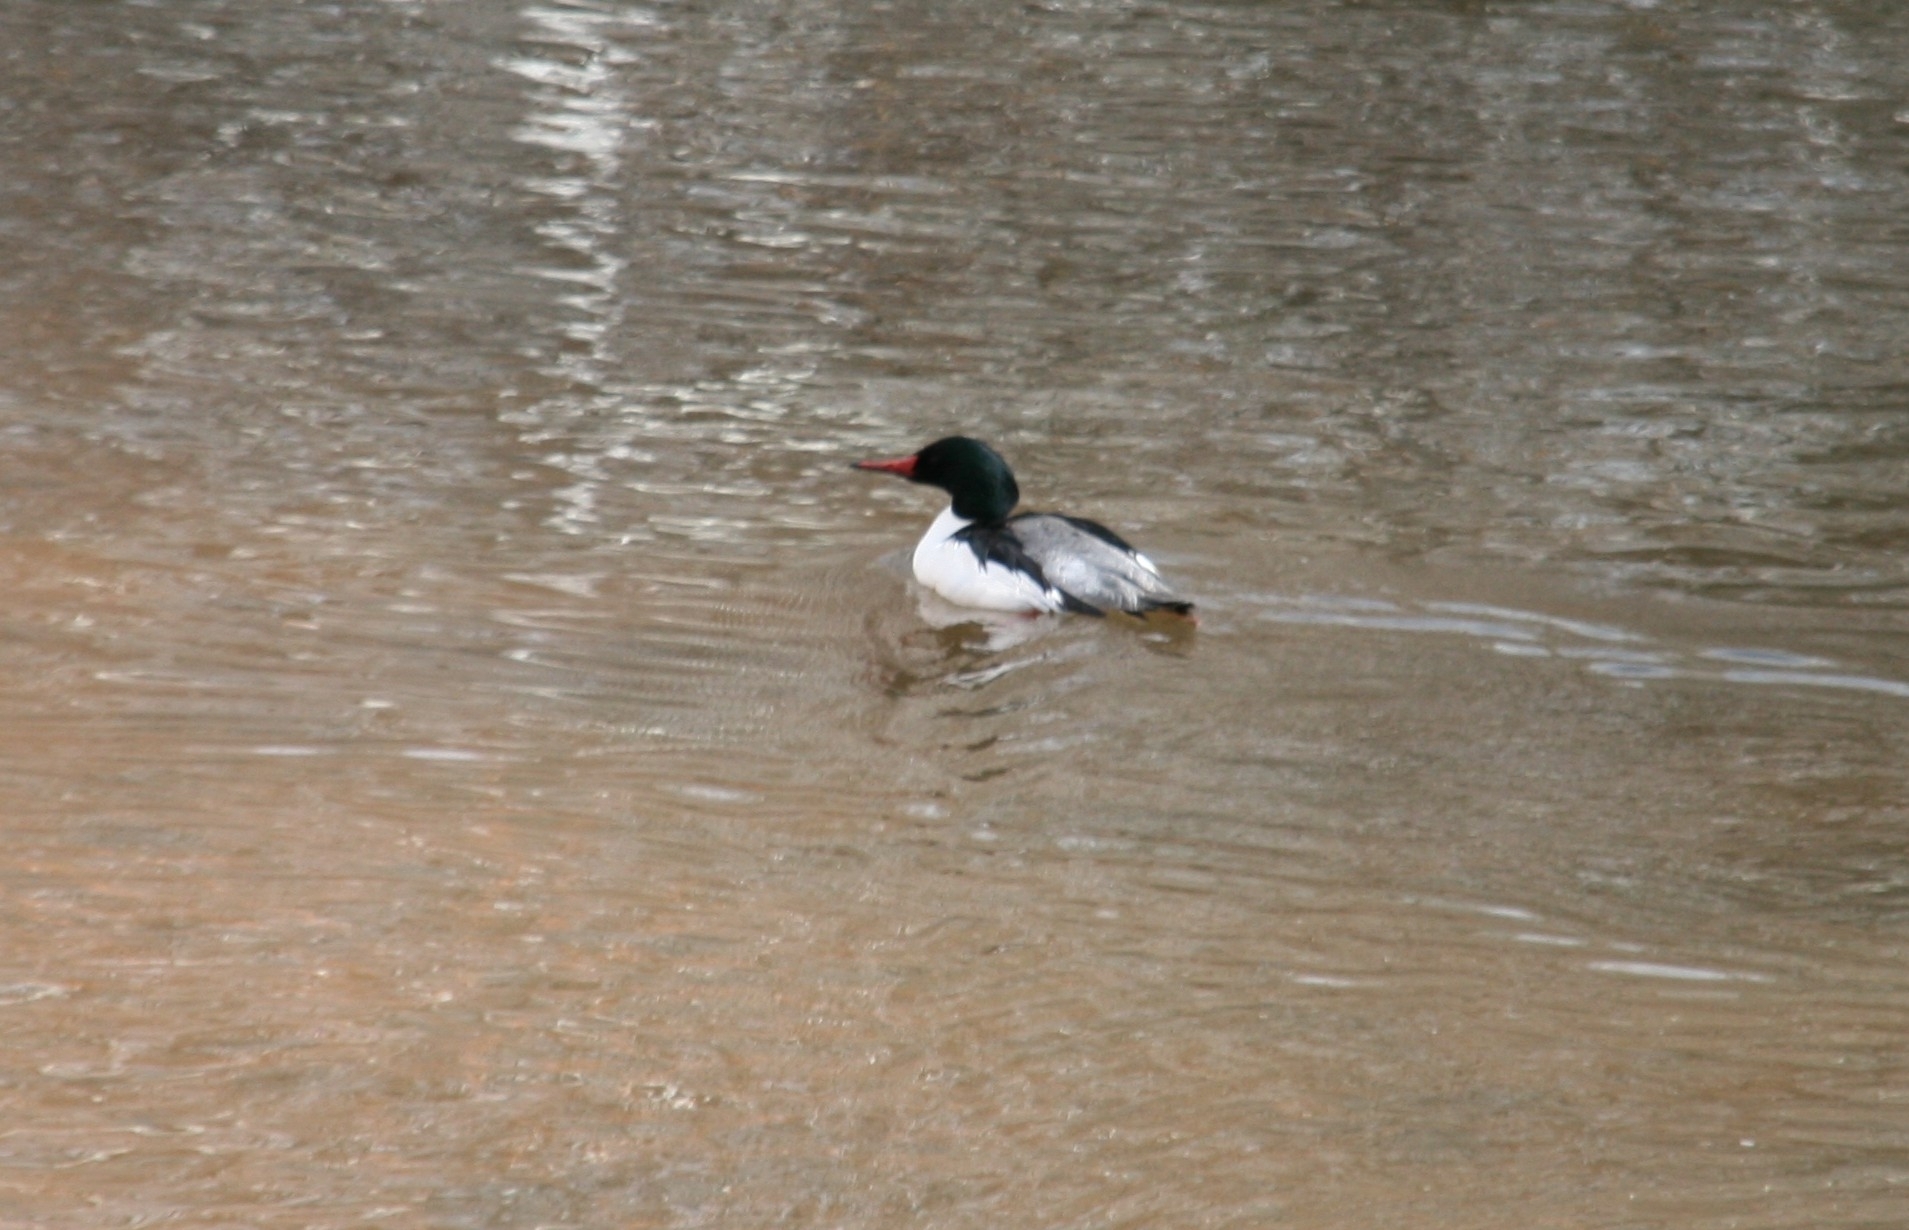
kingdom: Animalia
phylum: Chordata
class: Aves
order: Anseriformes
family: Anatidae
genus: Mergus
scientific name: Mergus merganser
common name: Common merganser
